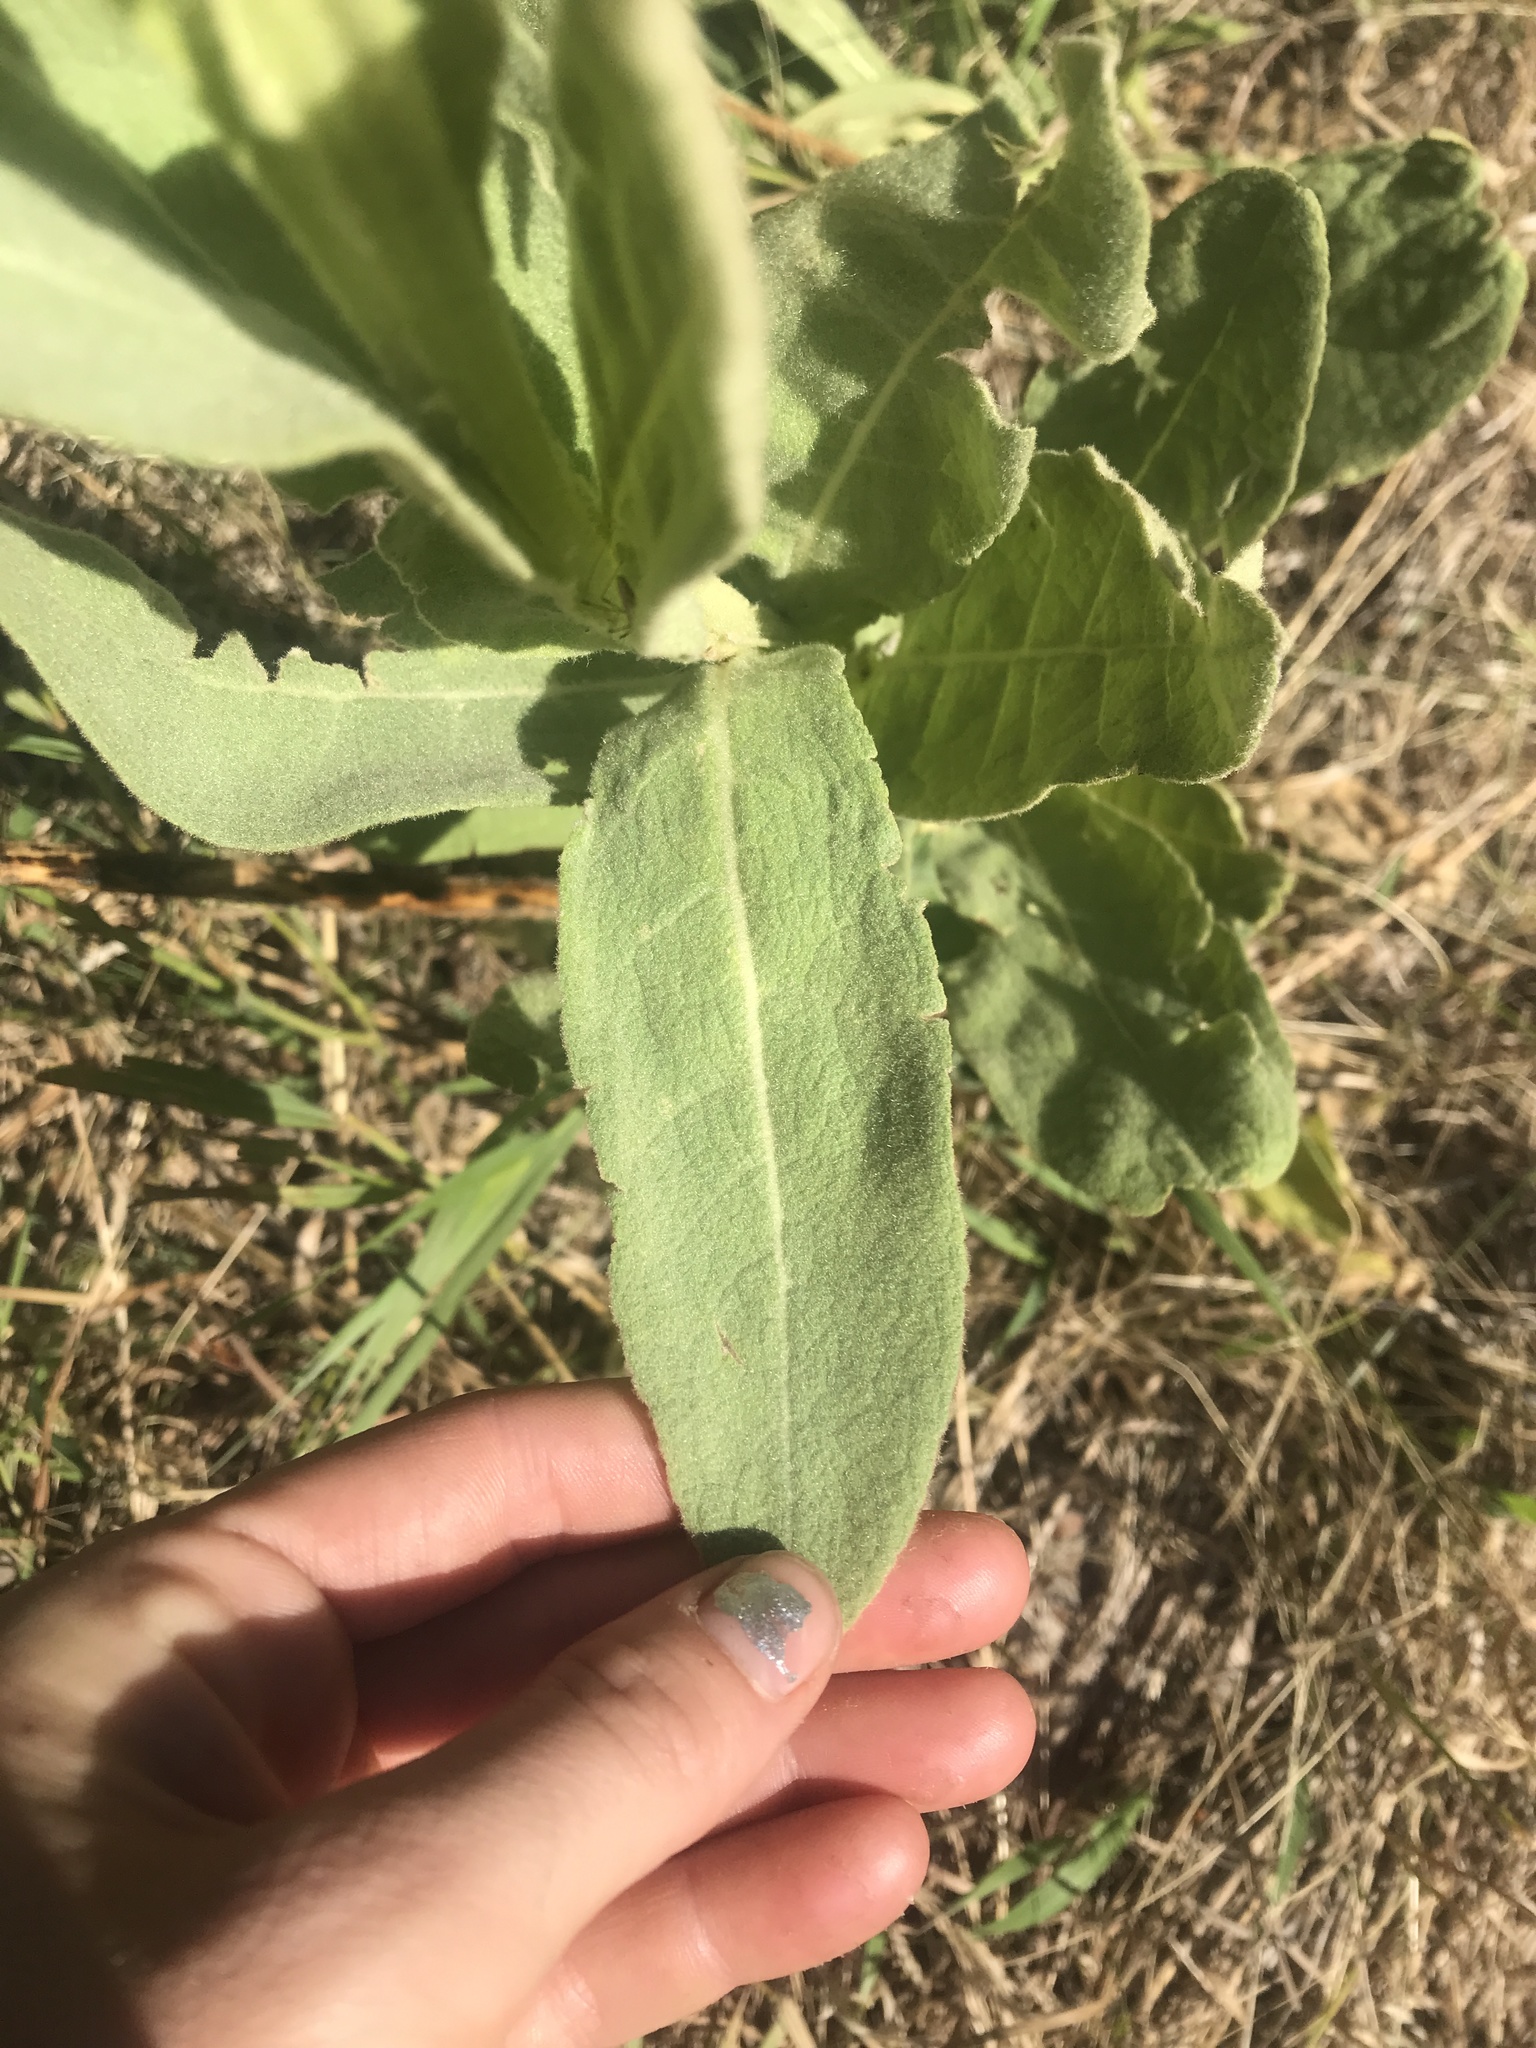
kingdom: Plantae
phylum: Tracheophyta
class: Magnoliopsida
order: Lamiales
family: Scrophulariaceae
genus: Verbascum
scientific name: Verbascum thapsus
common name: Common mullein
